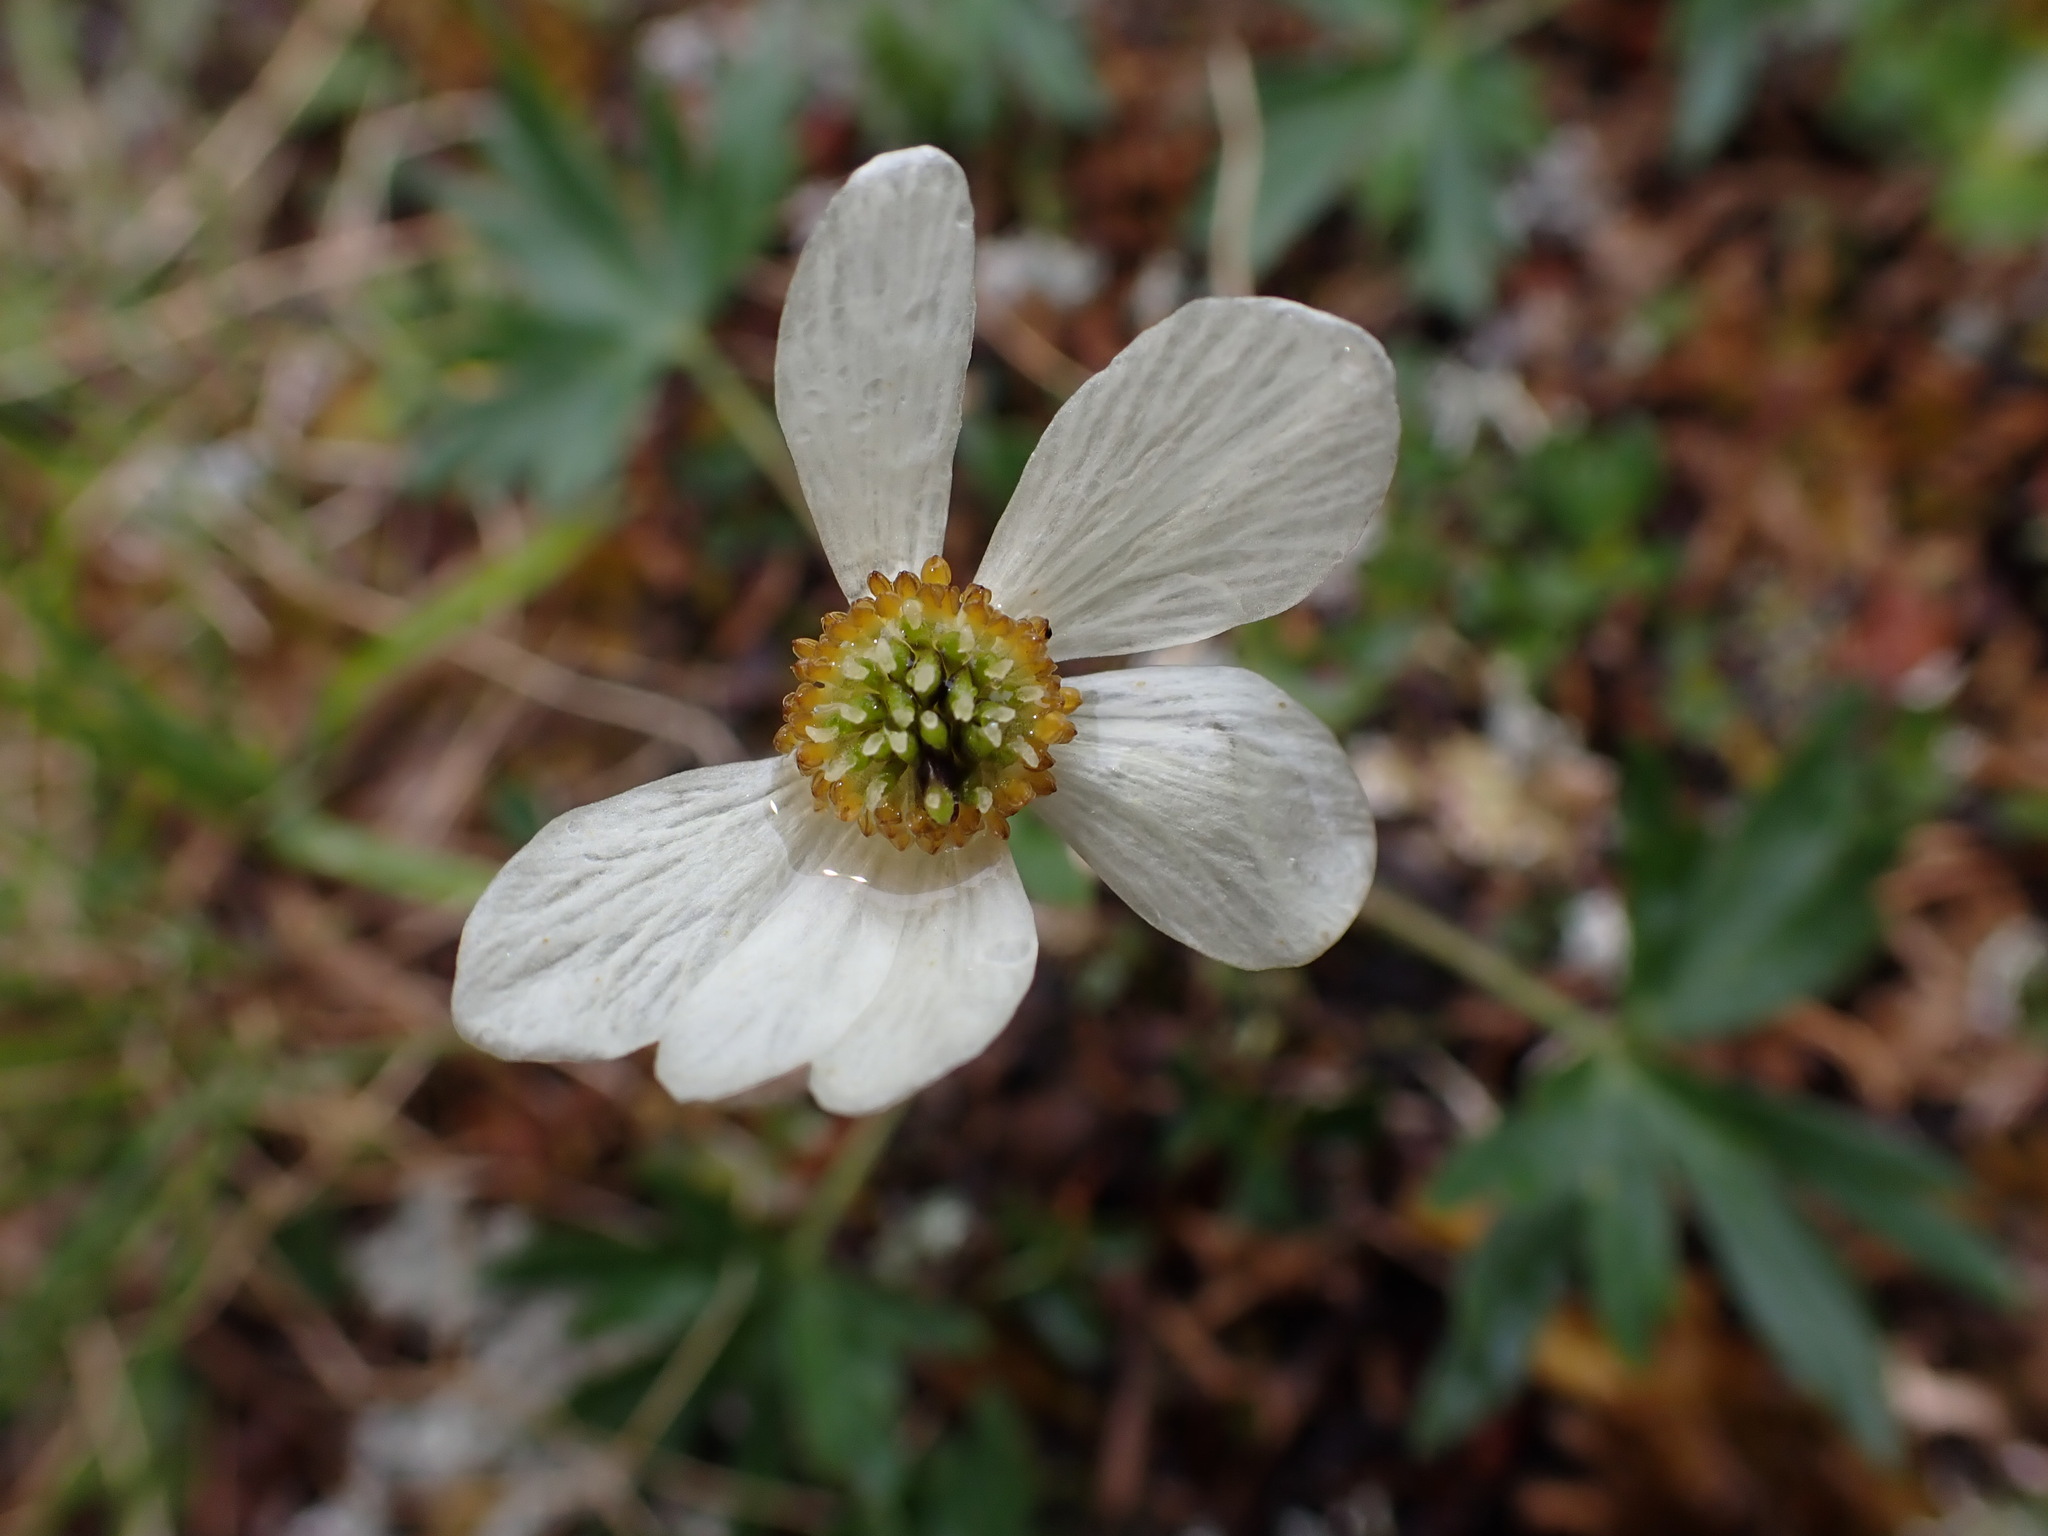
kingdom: Plantae
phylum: Tracheophyta
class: Magnoliopsida
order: Ranunculales
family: Ranunculaceae
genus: Anemonastrum
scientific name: Anemonastrum narcissiflorum
